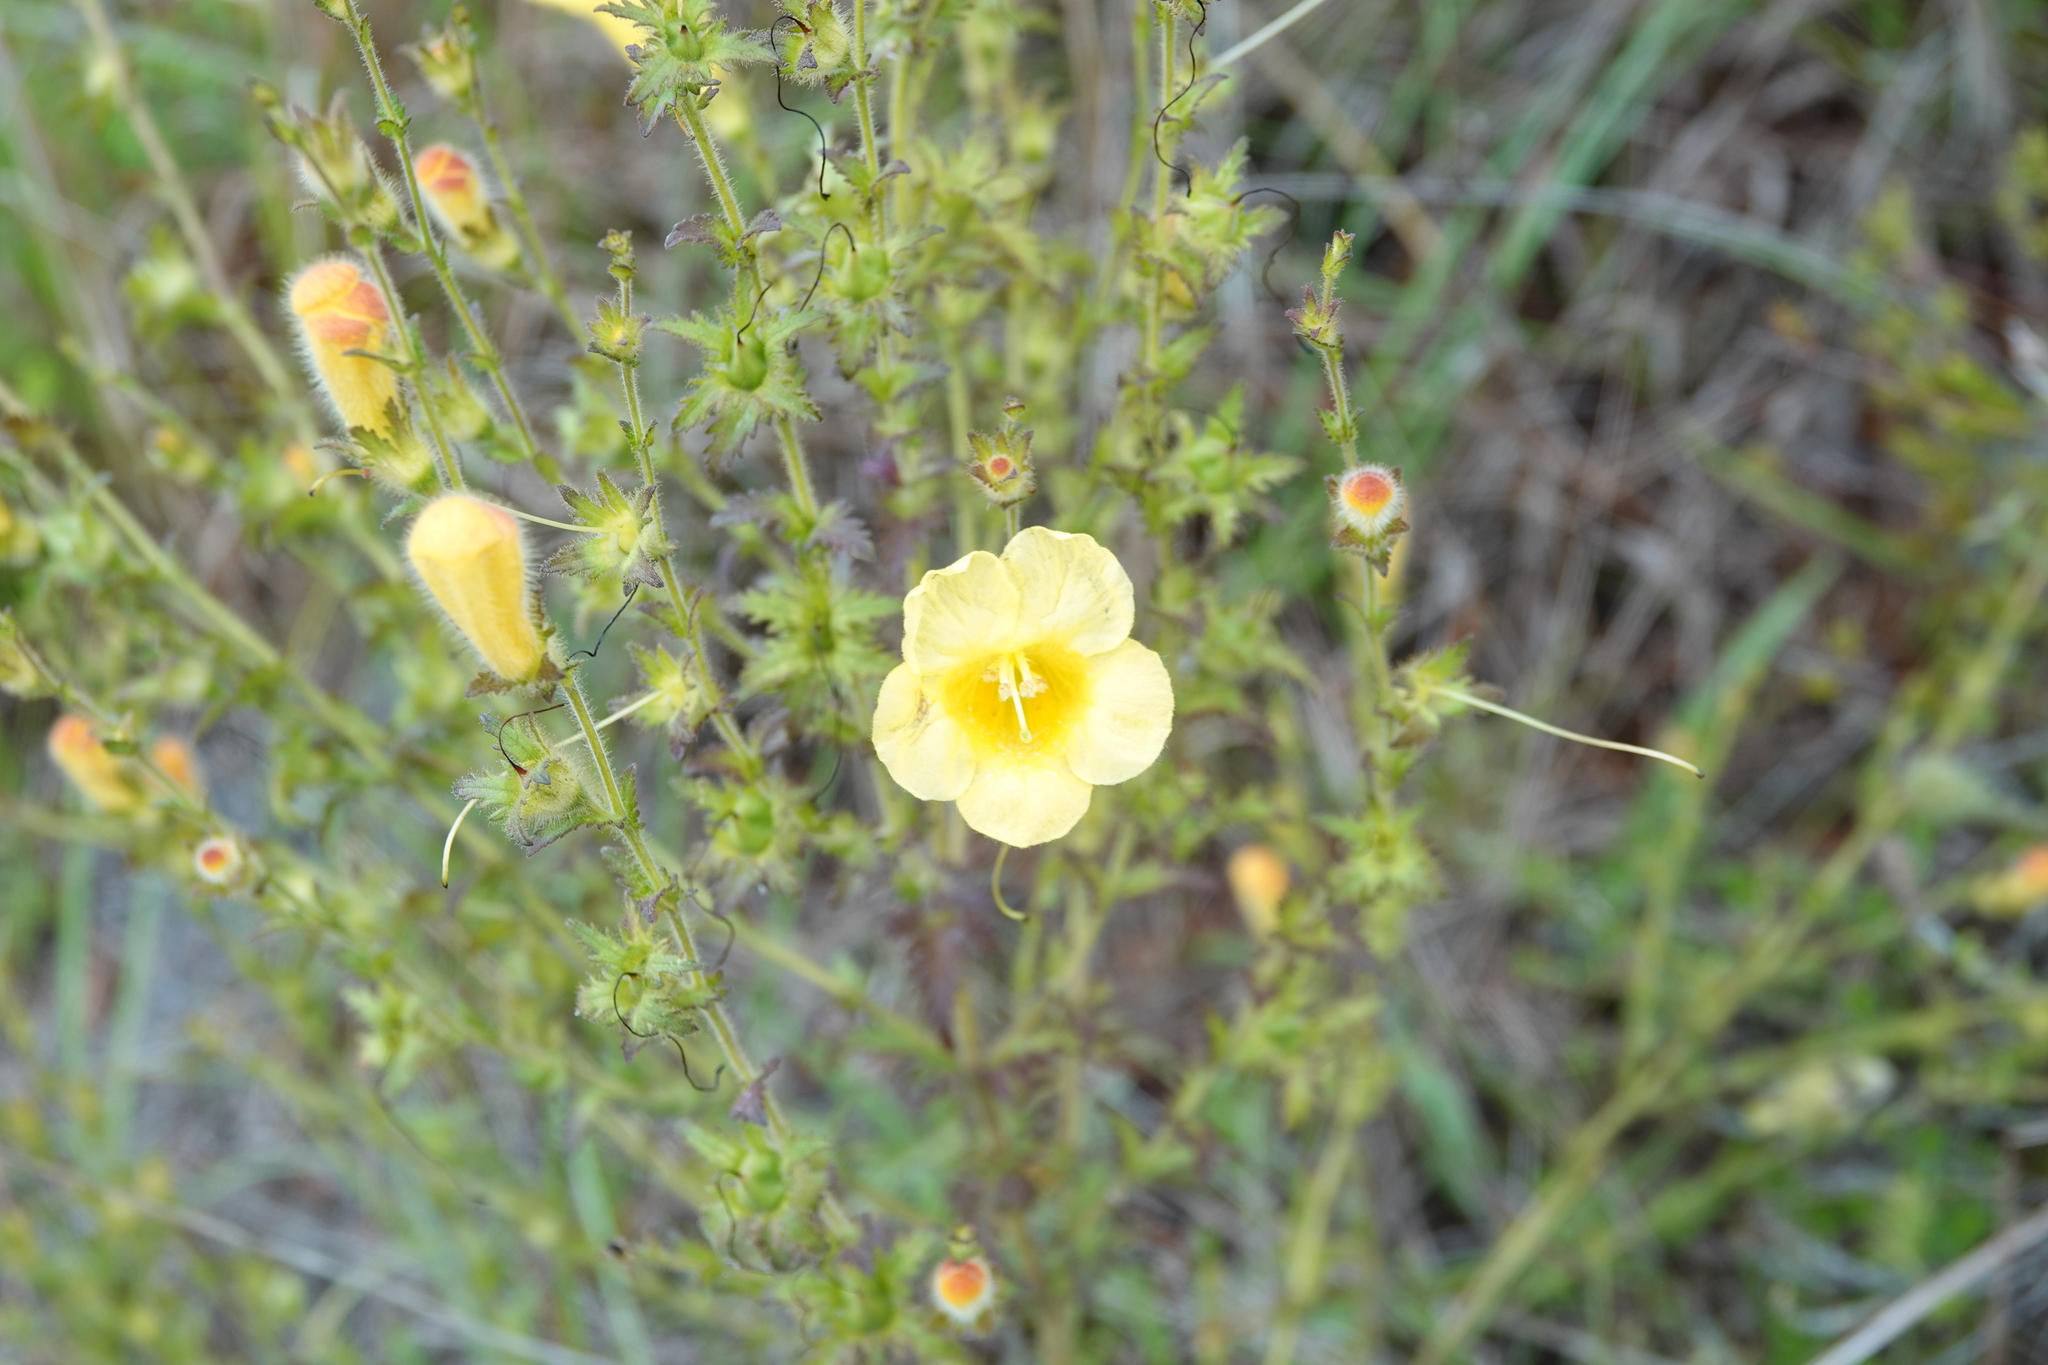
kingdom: Plantae
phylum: Tracheophyta
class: Magnoliopsida
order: Lamiales
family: Orobanchaceae
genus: Aureolaria
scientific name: Aureolaria pectinata
